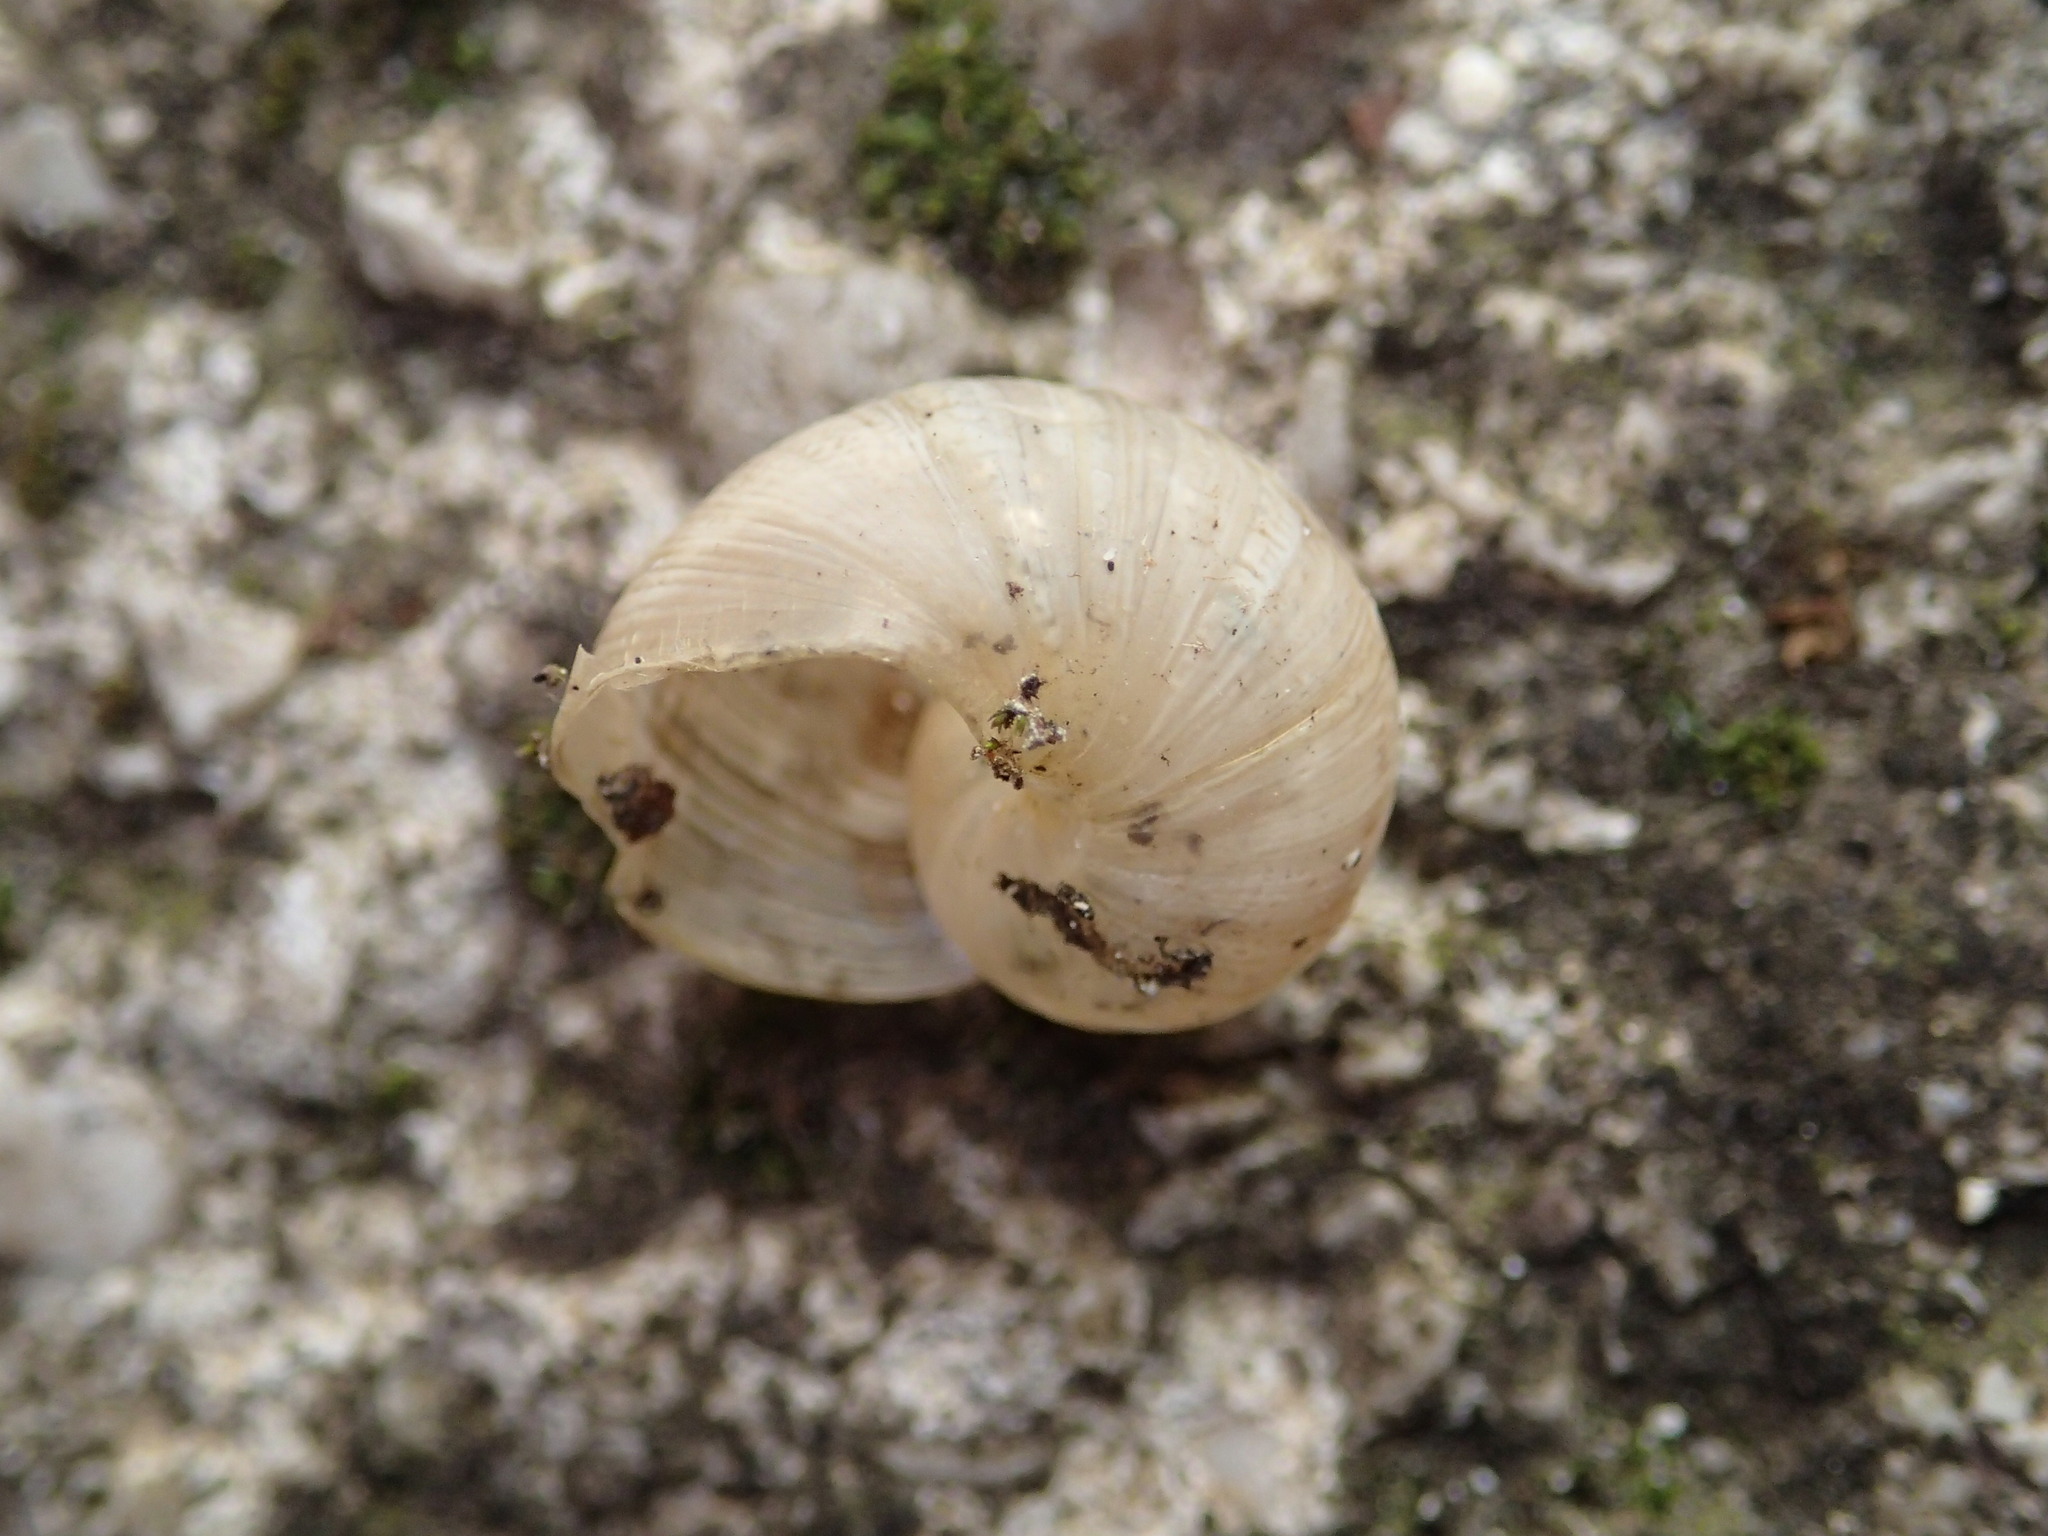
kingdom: Animalia
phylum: Mollusca
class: Gastropoda
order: Stylommatophora
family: Helicidae
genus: Cornu
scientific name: Cornu aspersum
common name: Brown garden snail
